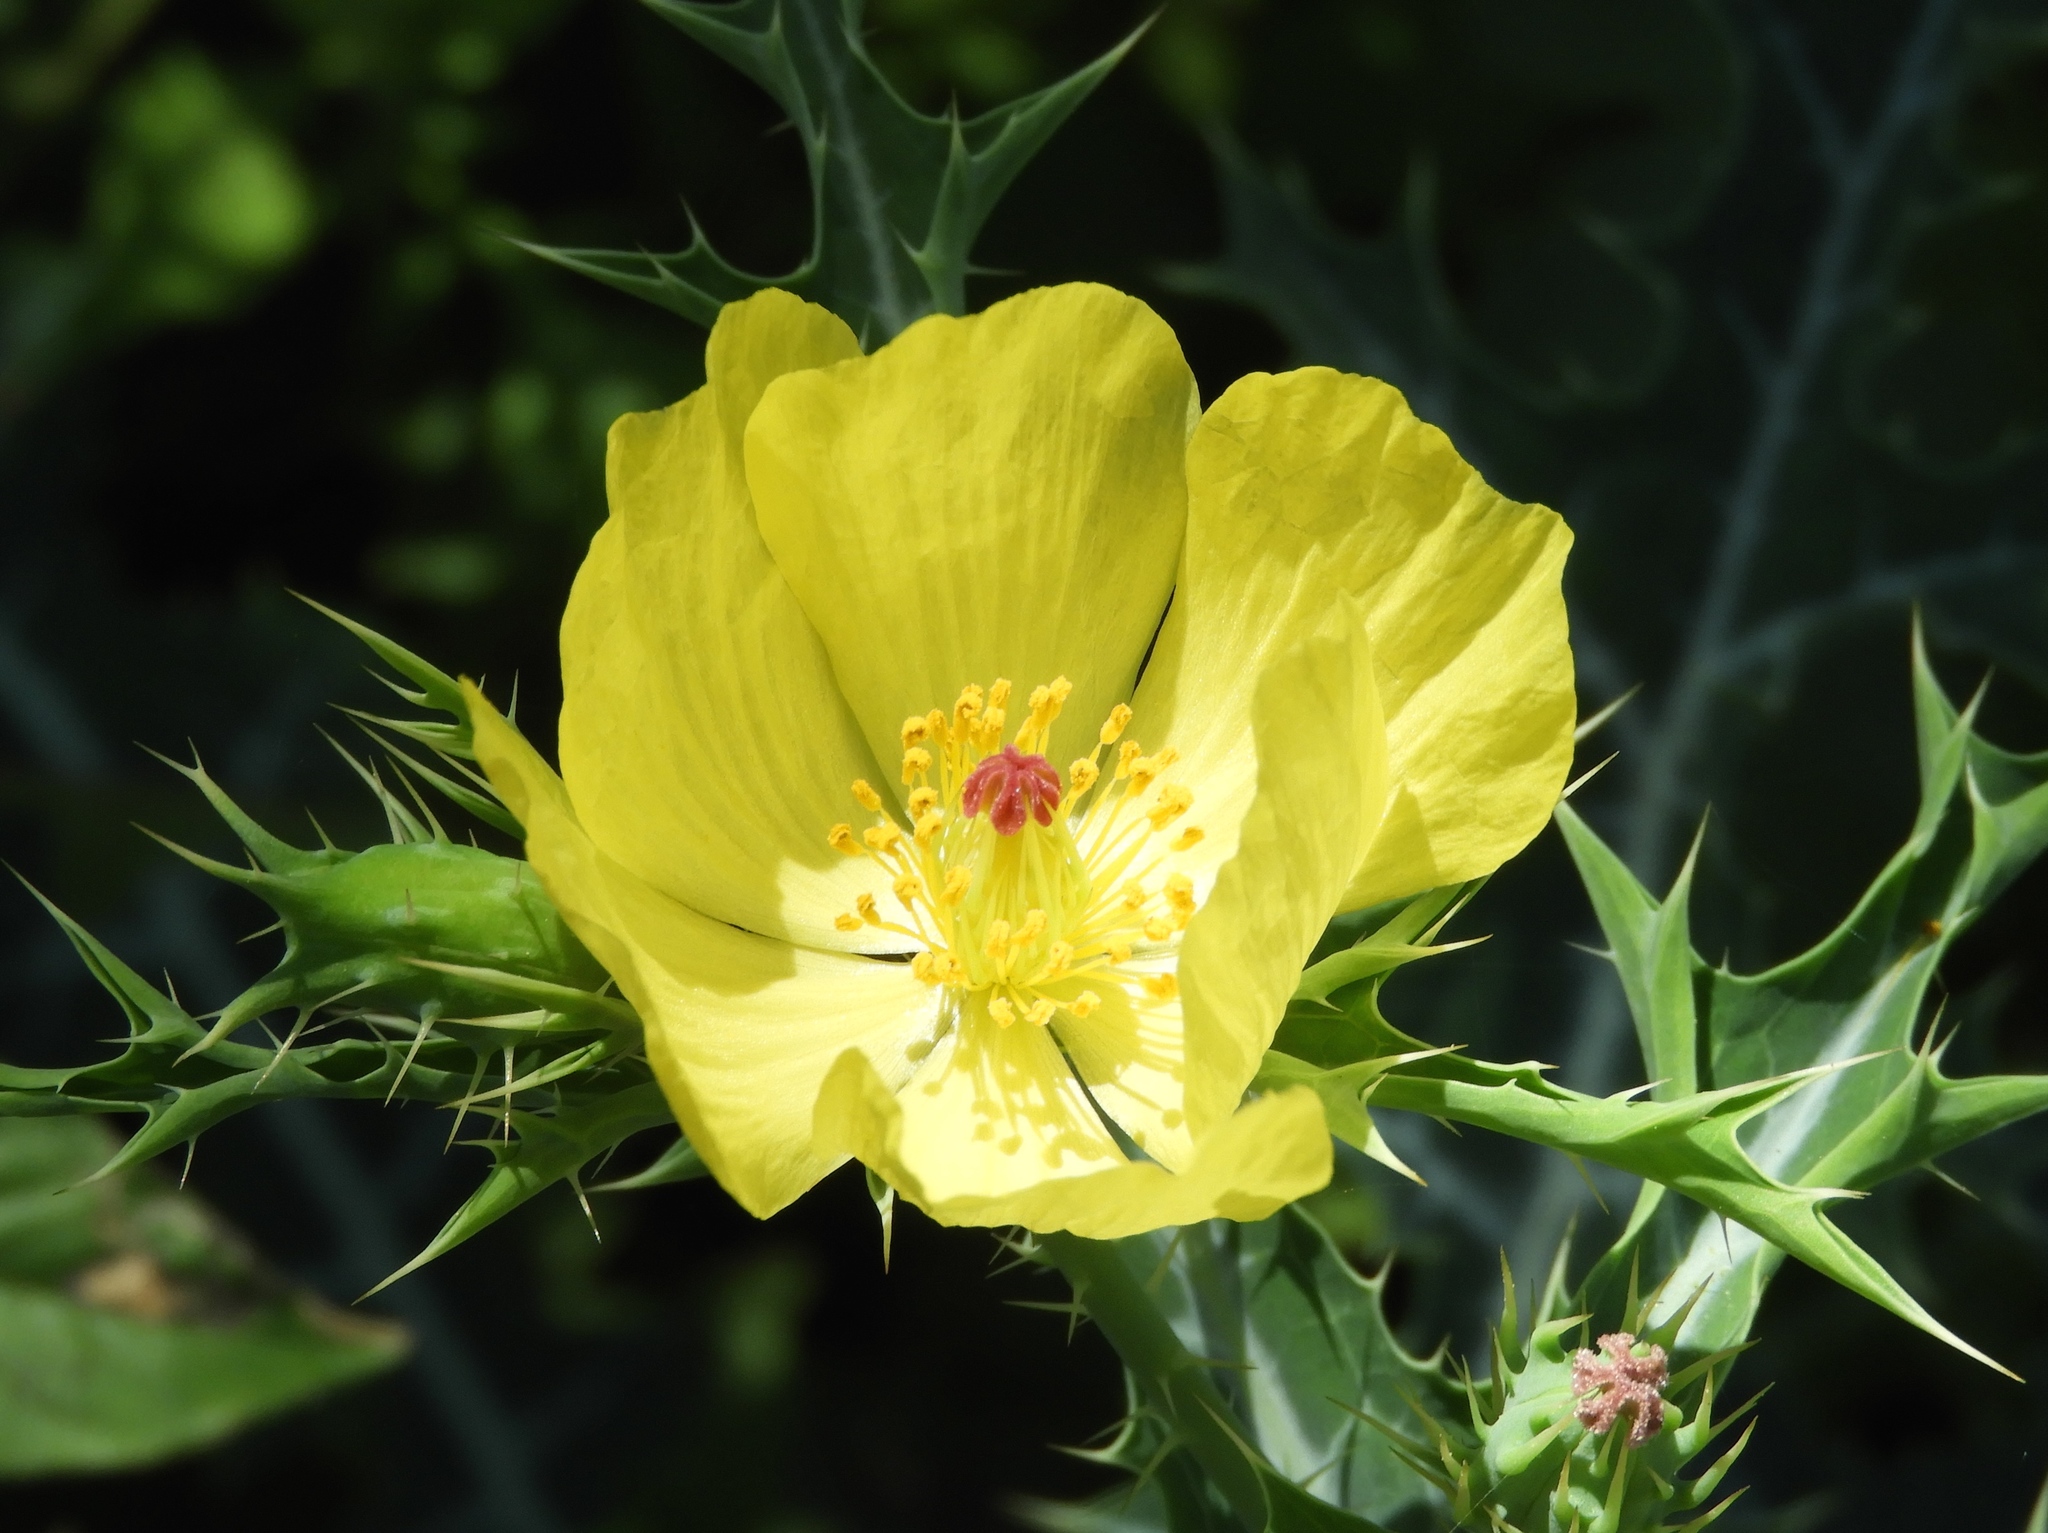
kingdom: Plantae
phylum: Tracheophyta
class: Magnoliopsida
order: Ranunculales
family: Papaveraceae
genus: Argemone
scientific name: Argemone mexicana
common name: Mexican poppy
